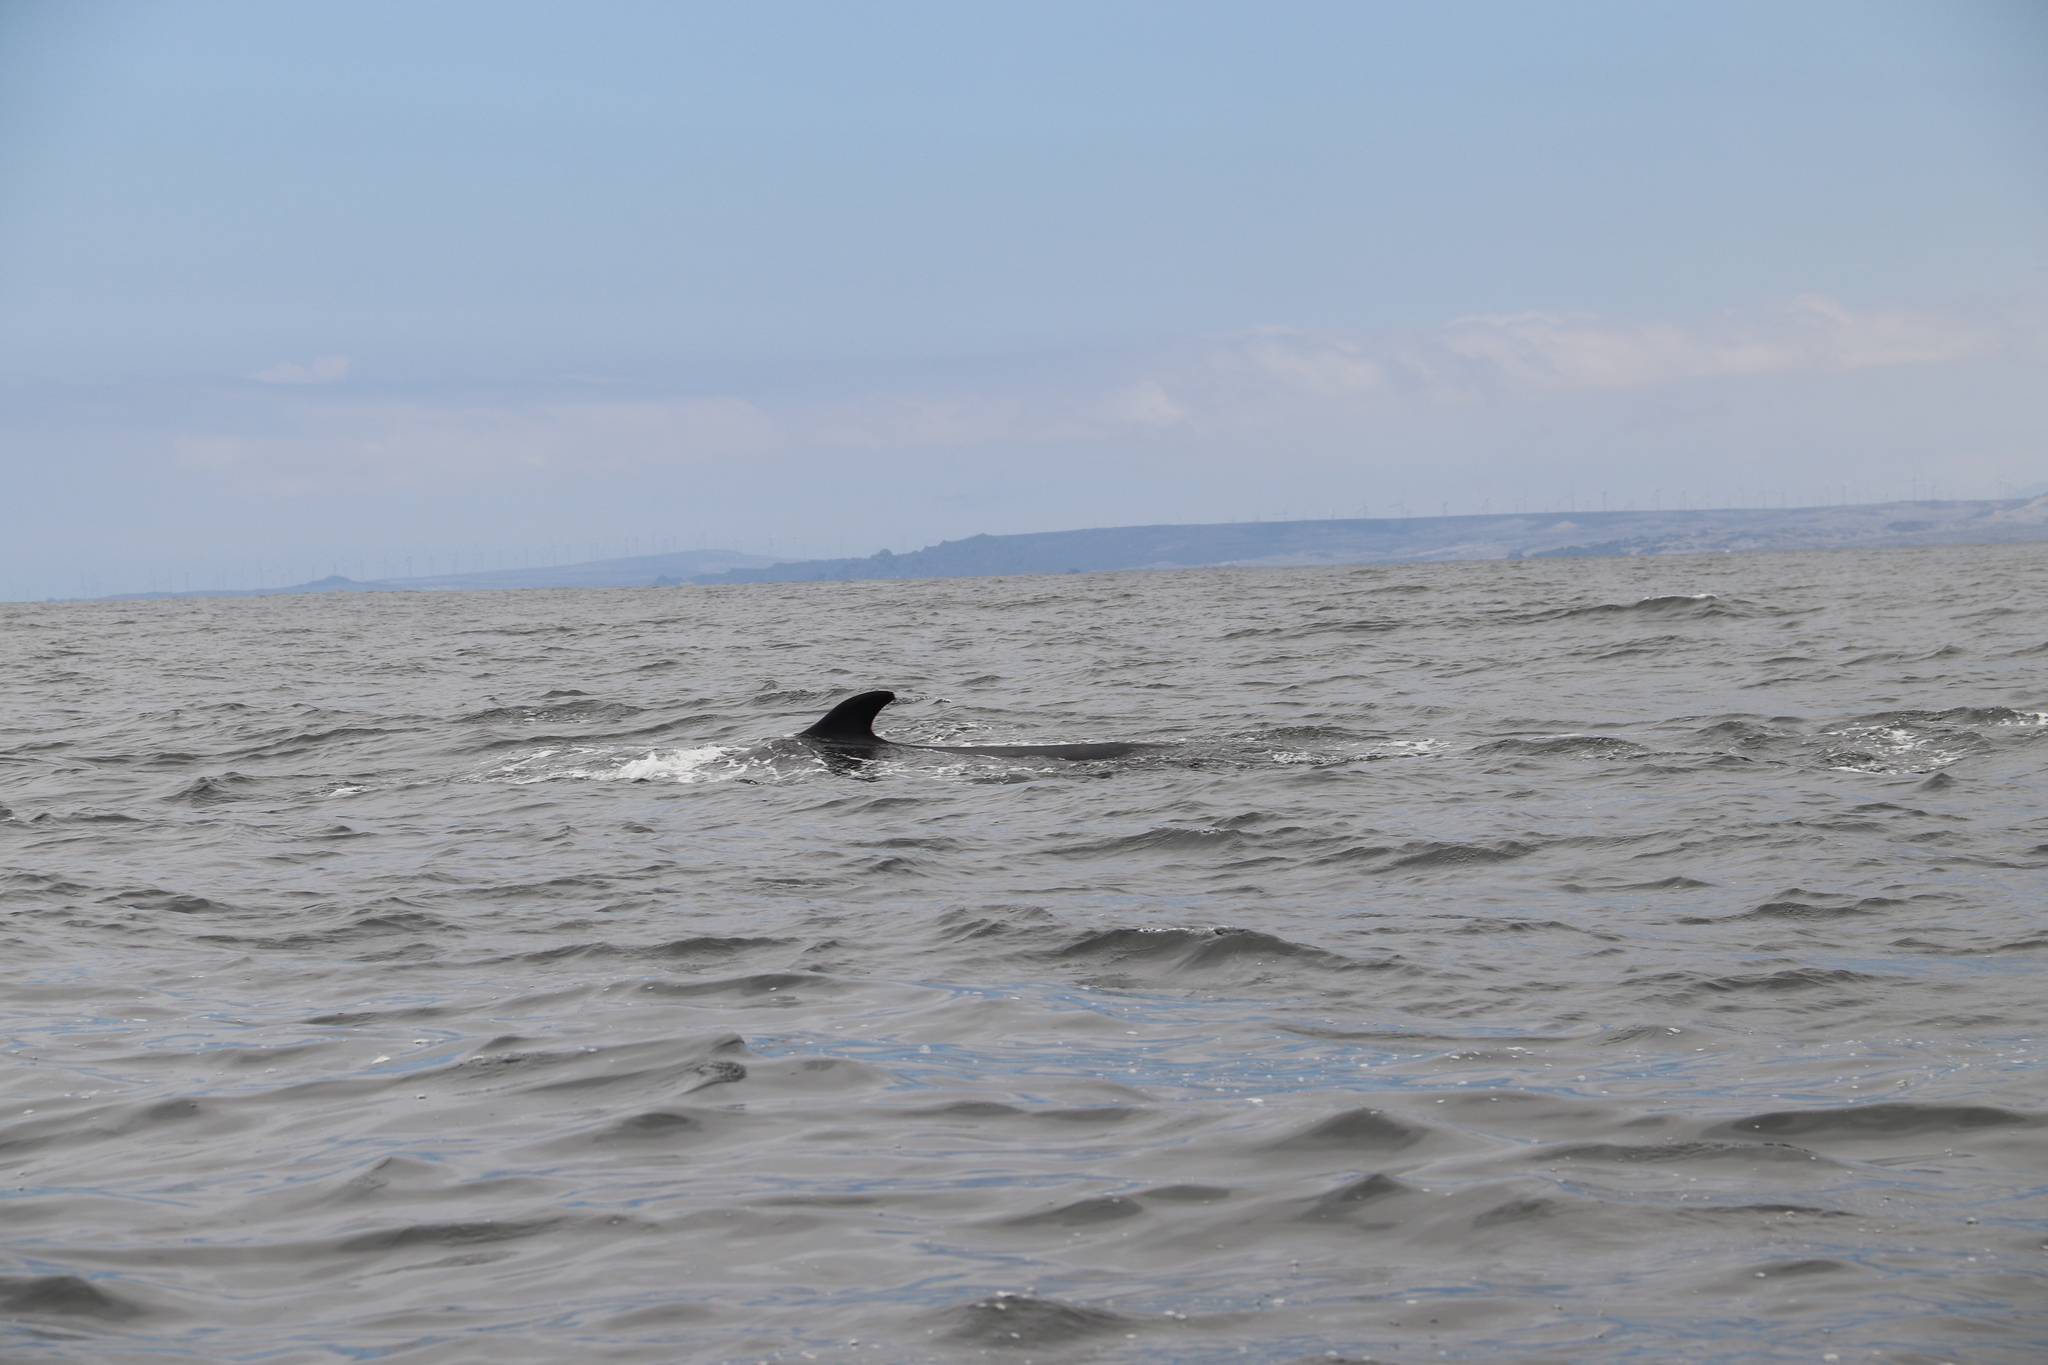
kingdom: Animalia
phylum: Chordata
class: Mammalia
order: Cetacea
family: Balaenopteridae
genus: Balaenoptera
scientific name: Balaenoptera physalus
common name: Fin whale
